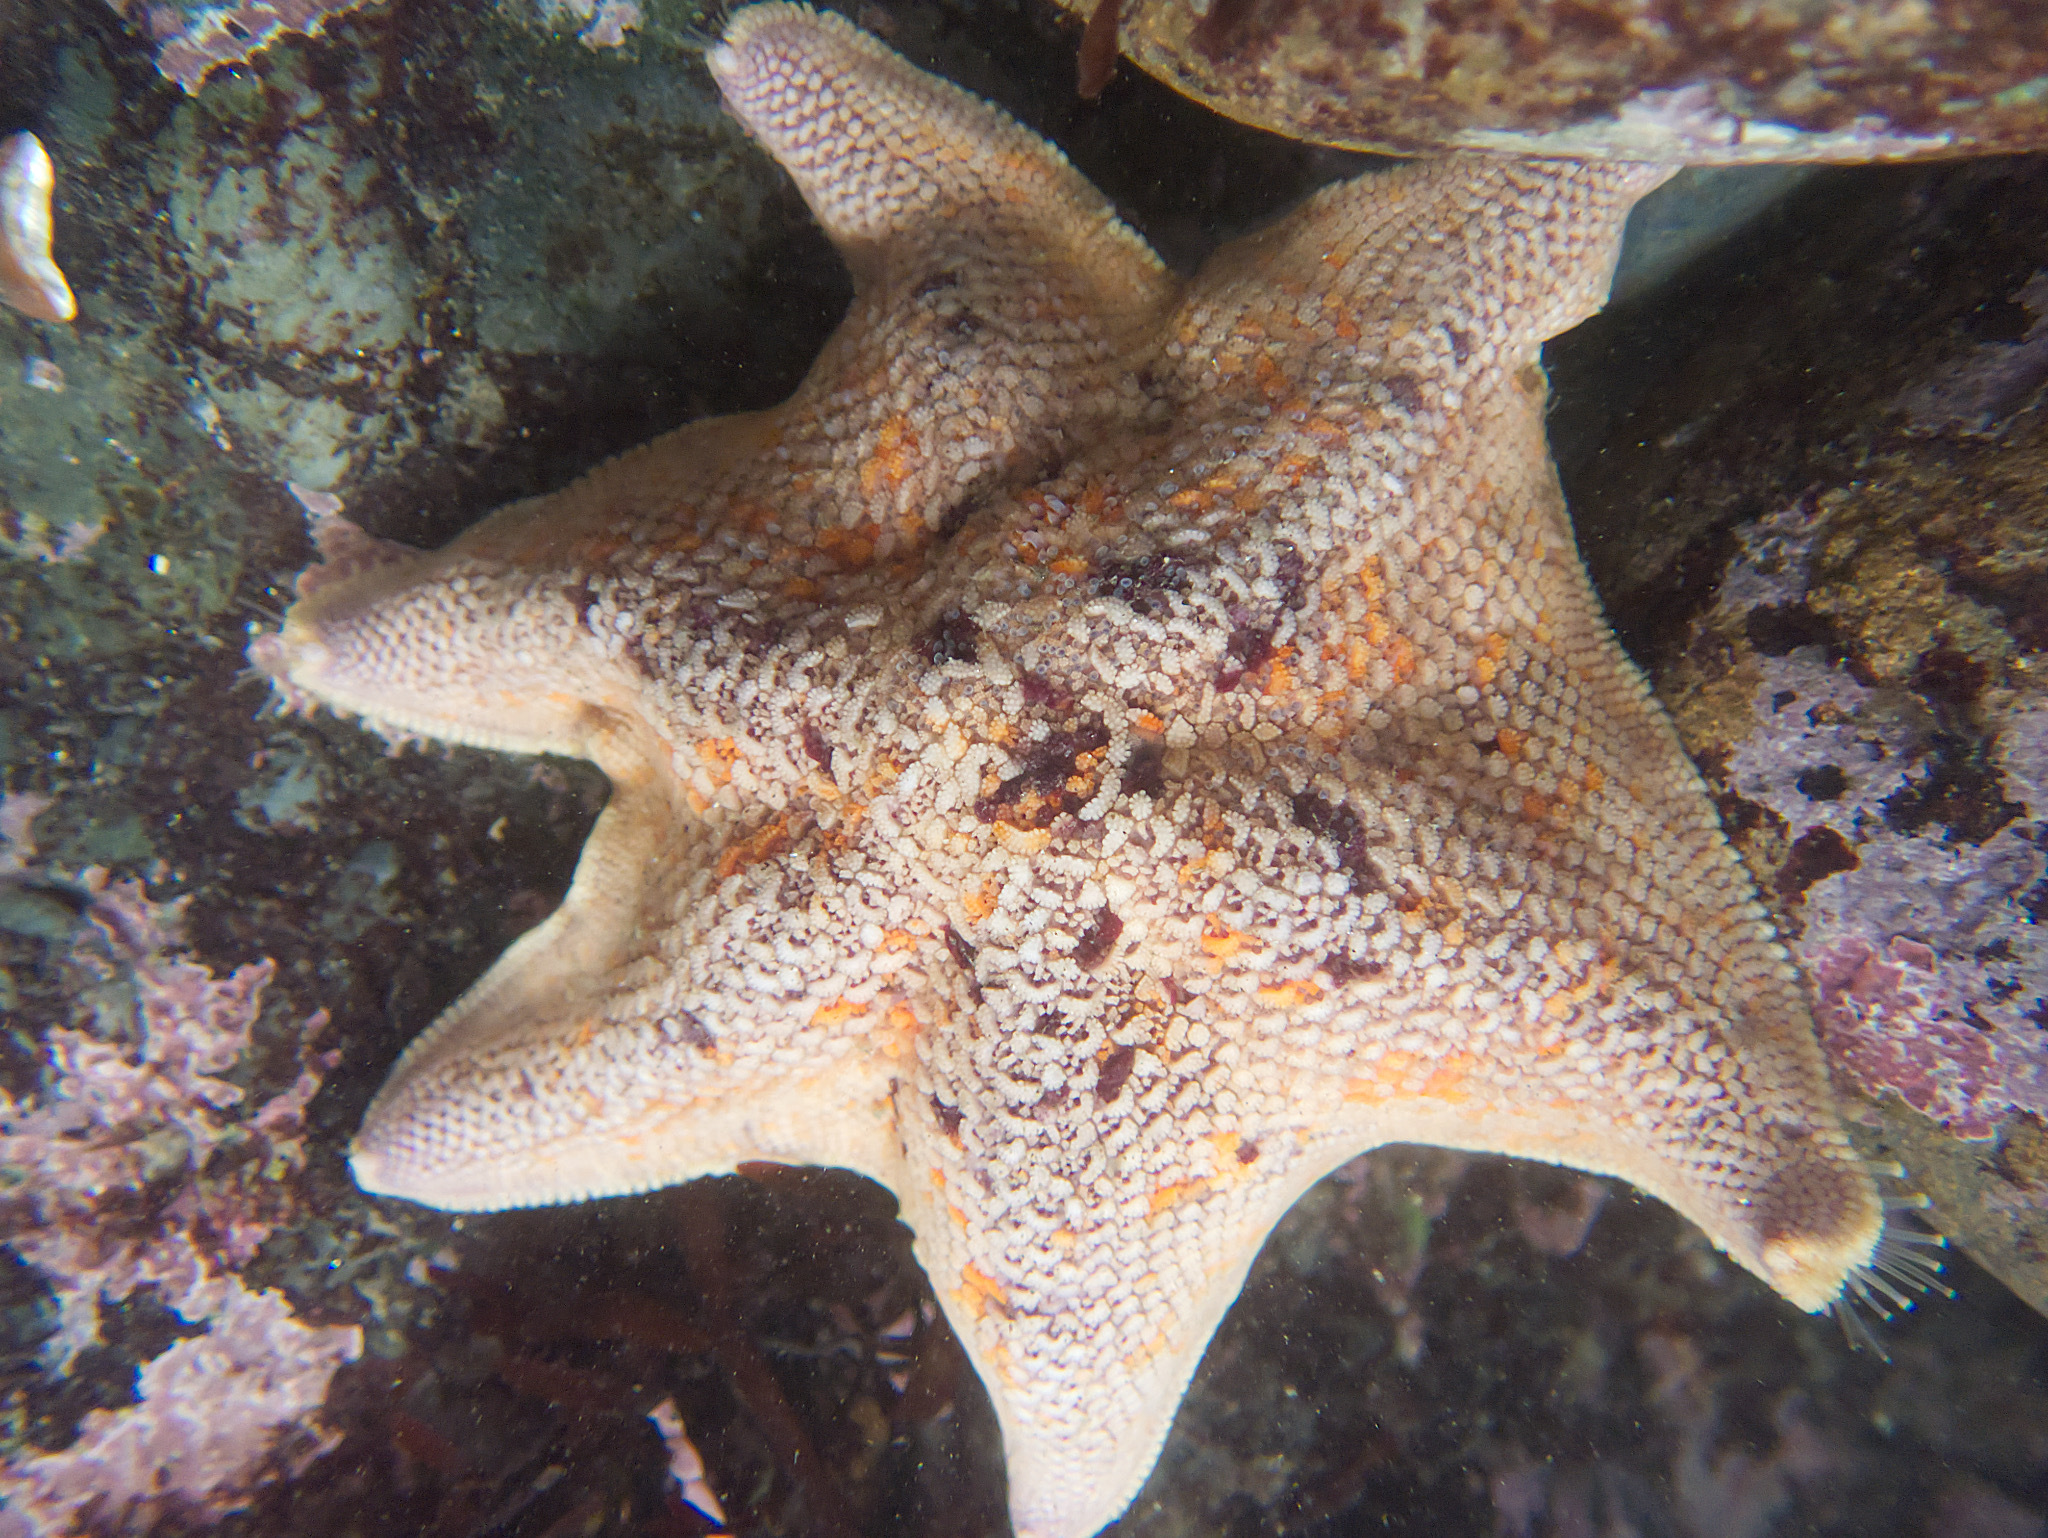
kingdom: Animalia
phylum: Echinodermata
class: Asteroidea
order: Valvatida
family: Asterinidae
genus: Patiria
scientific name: Patiria miniata
